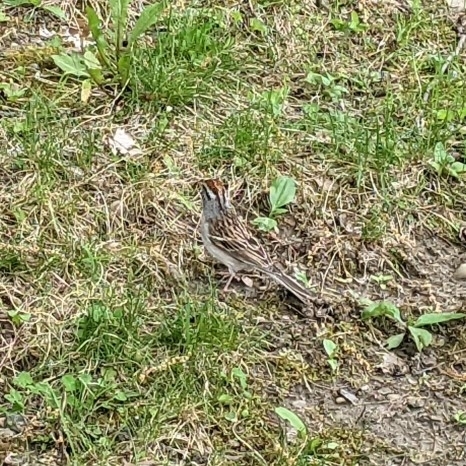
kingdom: Animalia
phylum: Chordata
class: Aves
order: Passeriformes
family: Passerellidae
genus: Spizella
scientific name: Spizella passerina
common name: Chipping sparrow
